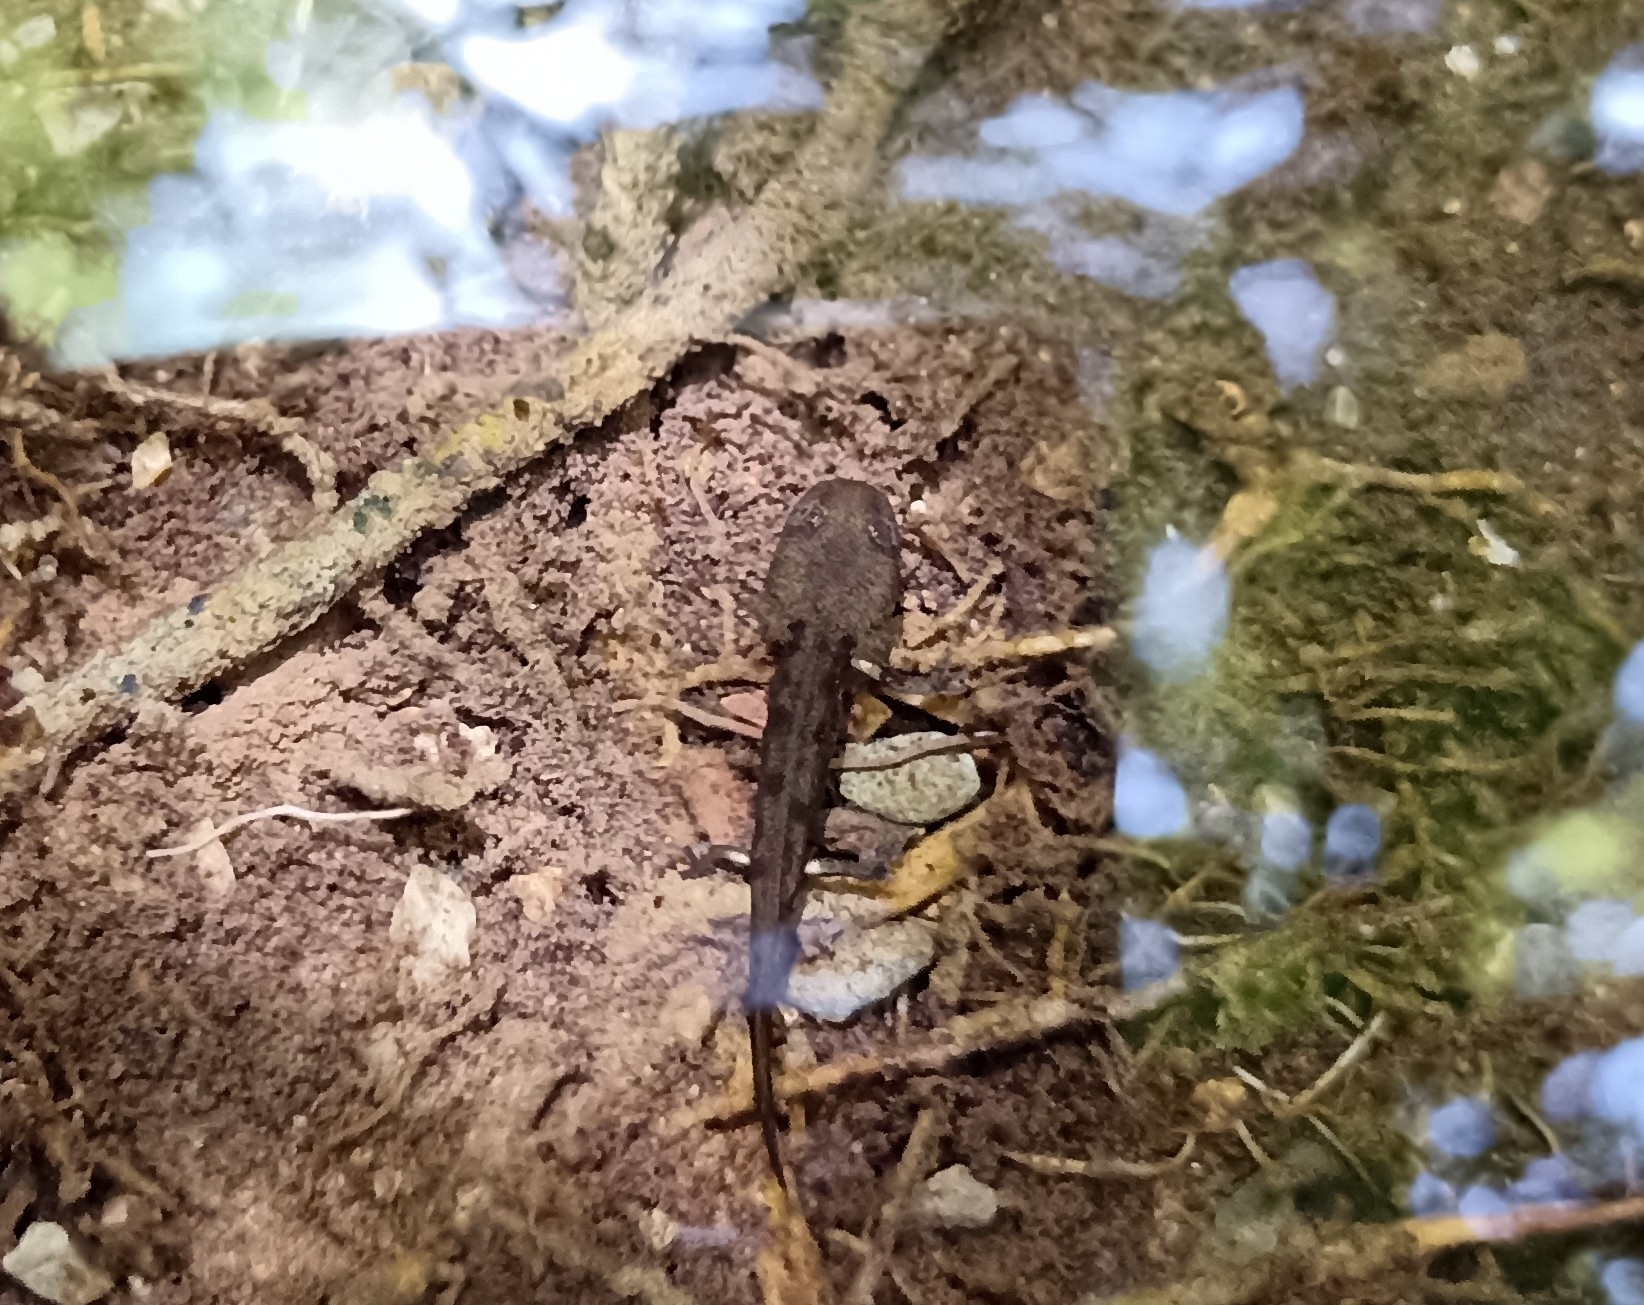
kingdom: Animalia
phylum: Chordata
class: Amphibia
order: Caudata
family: Salamandridae
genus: Salamandra
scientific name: Salamandra salamandra
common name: Fire salamander
